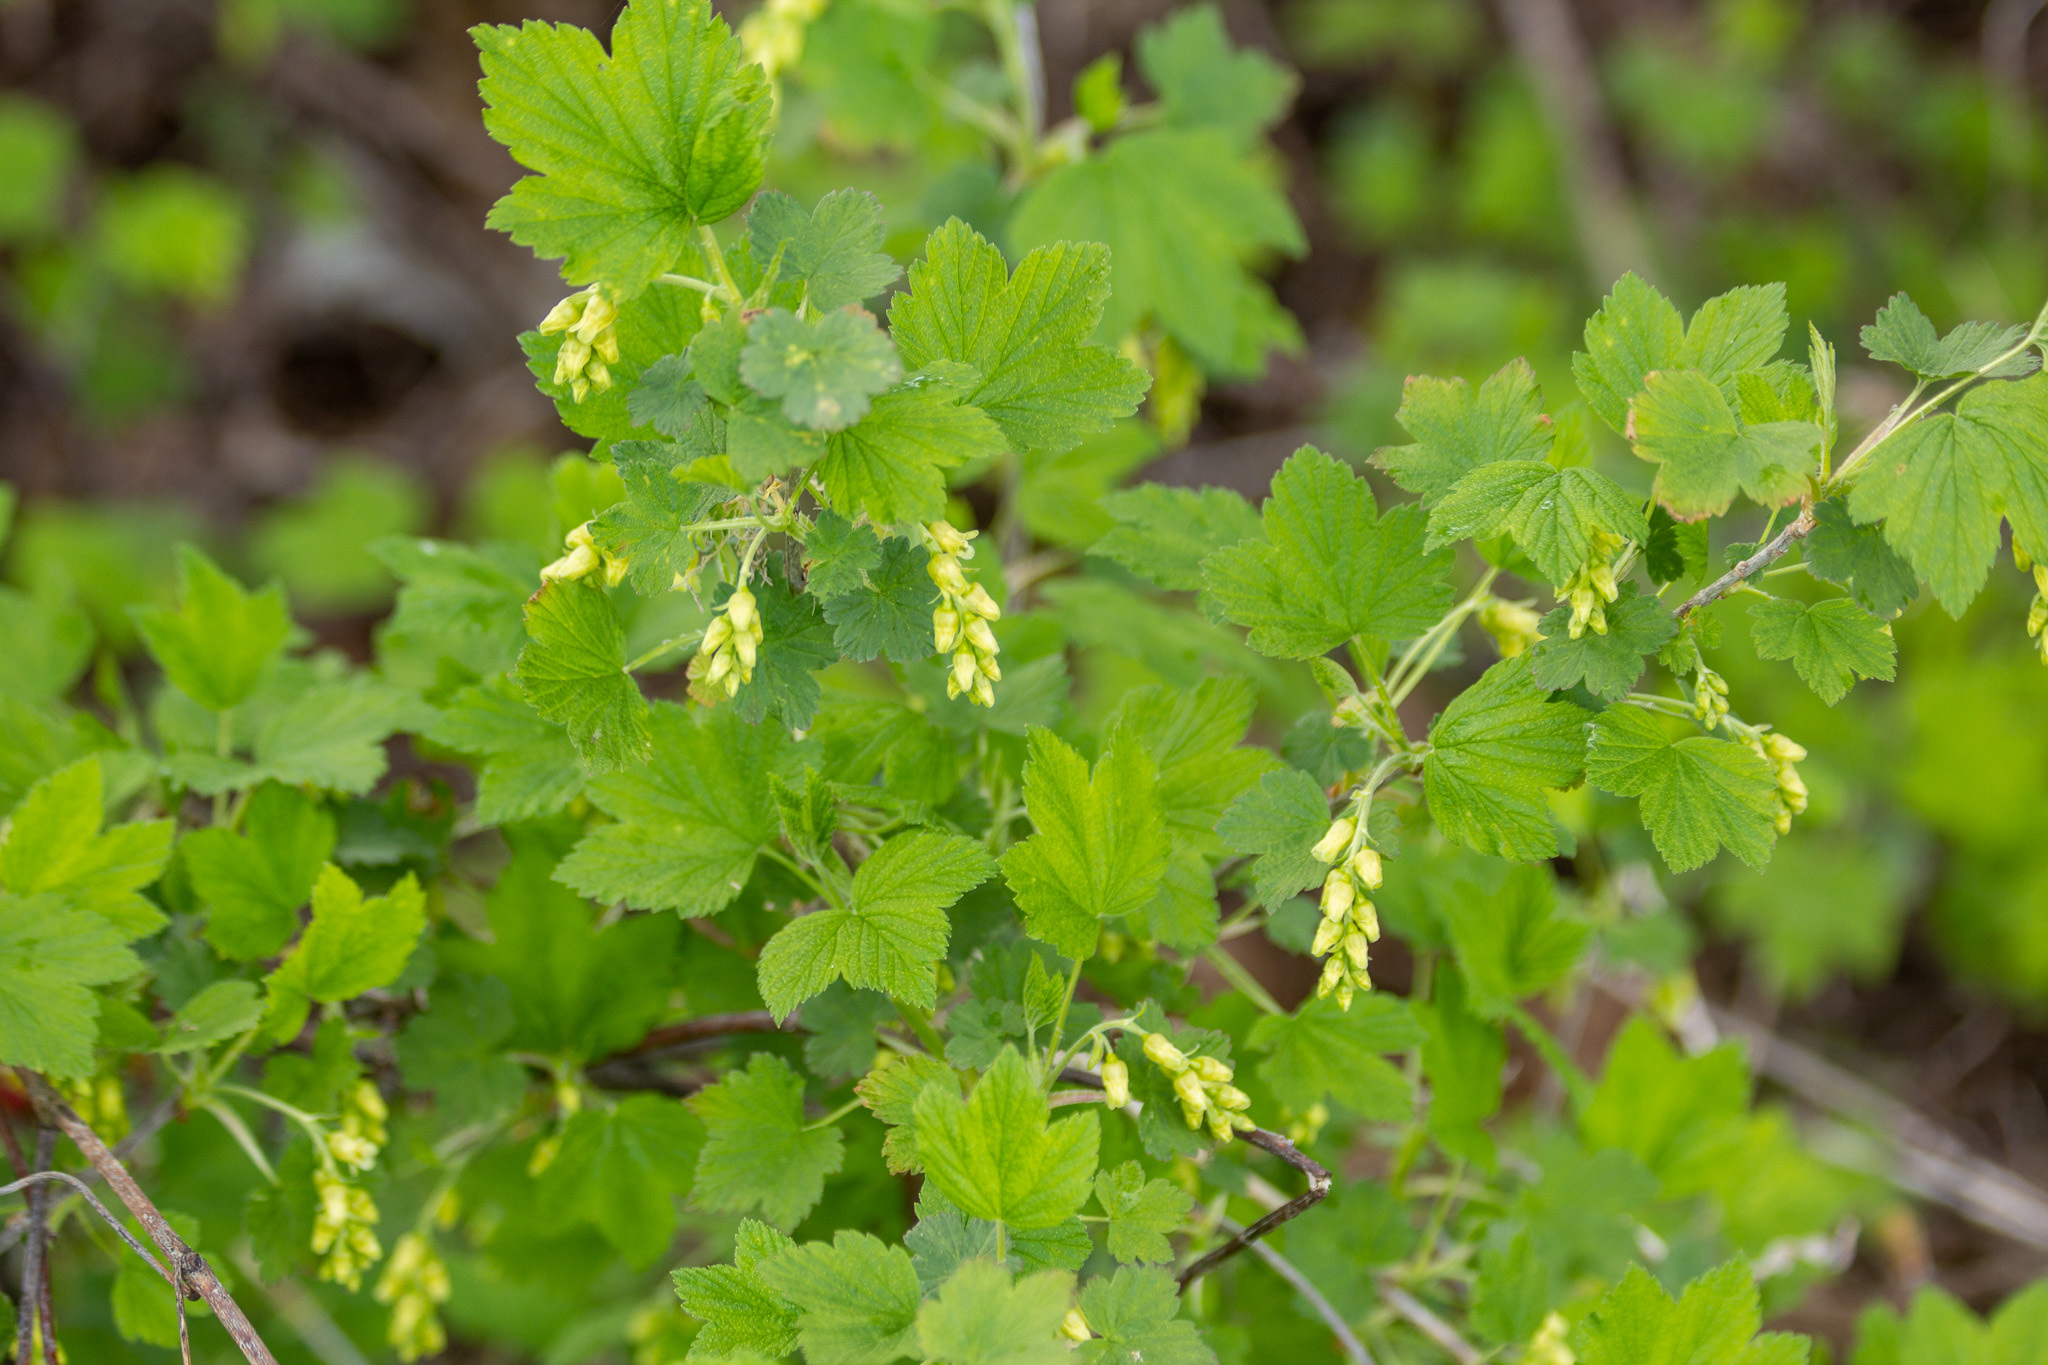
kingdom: Plantae
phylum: Tracheophyta
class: Magnoliopsida
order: Saxifragales
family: Grossulariaceae
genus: Ribes
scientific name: Ribes americanum
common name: American black currant
